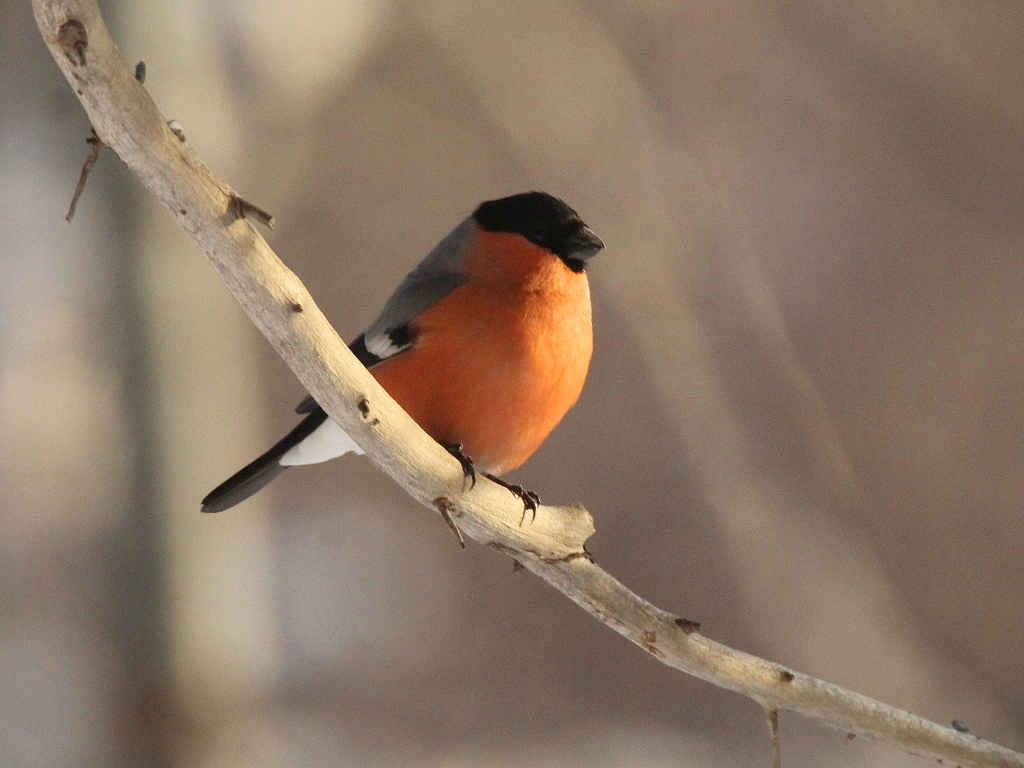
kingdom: Animalia
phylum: Chordata
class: Aves
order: Passeriformes
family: Fringillidae
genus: Pyrrhula
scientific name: Pyrrhula pyrrhula
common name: Eurasian bullfinch
